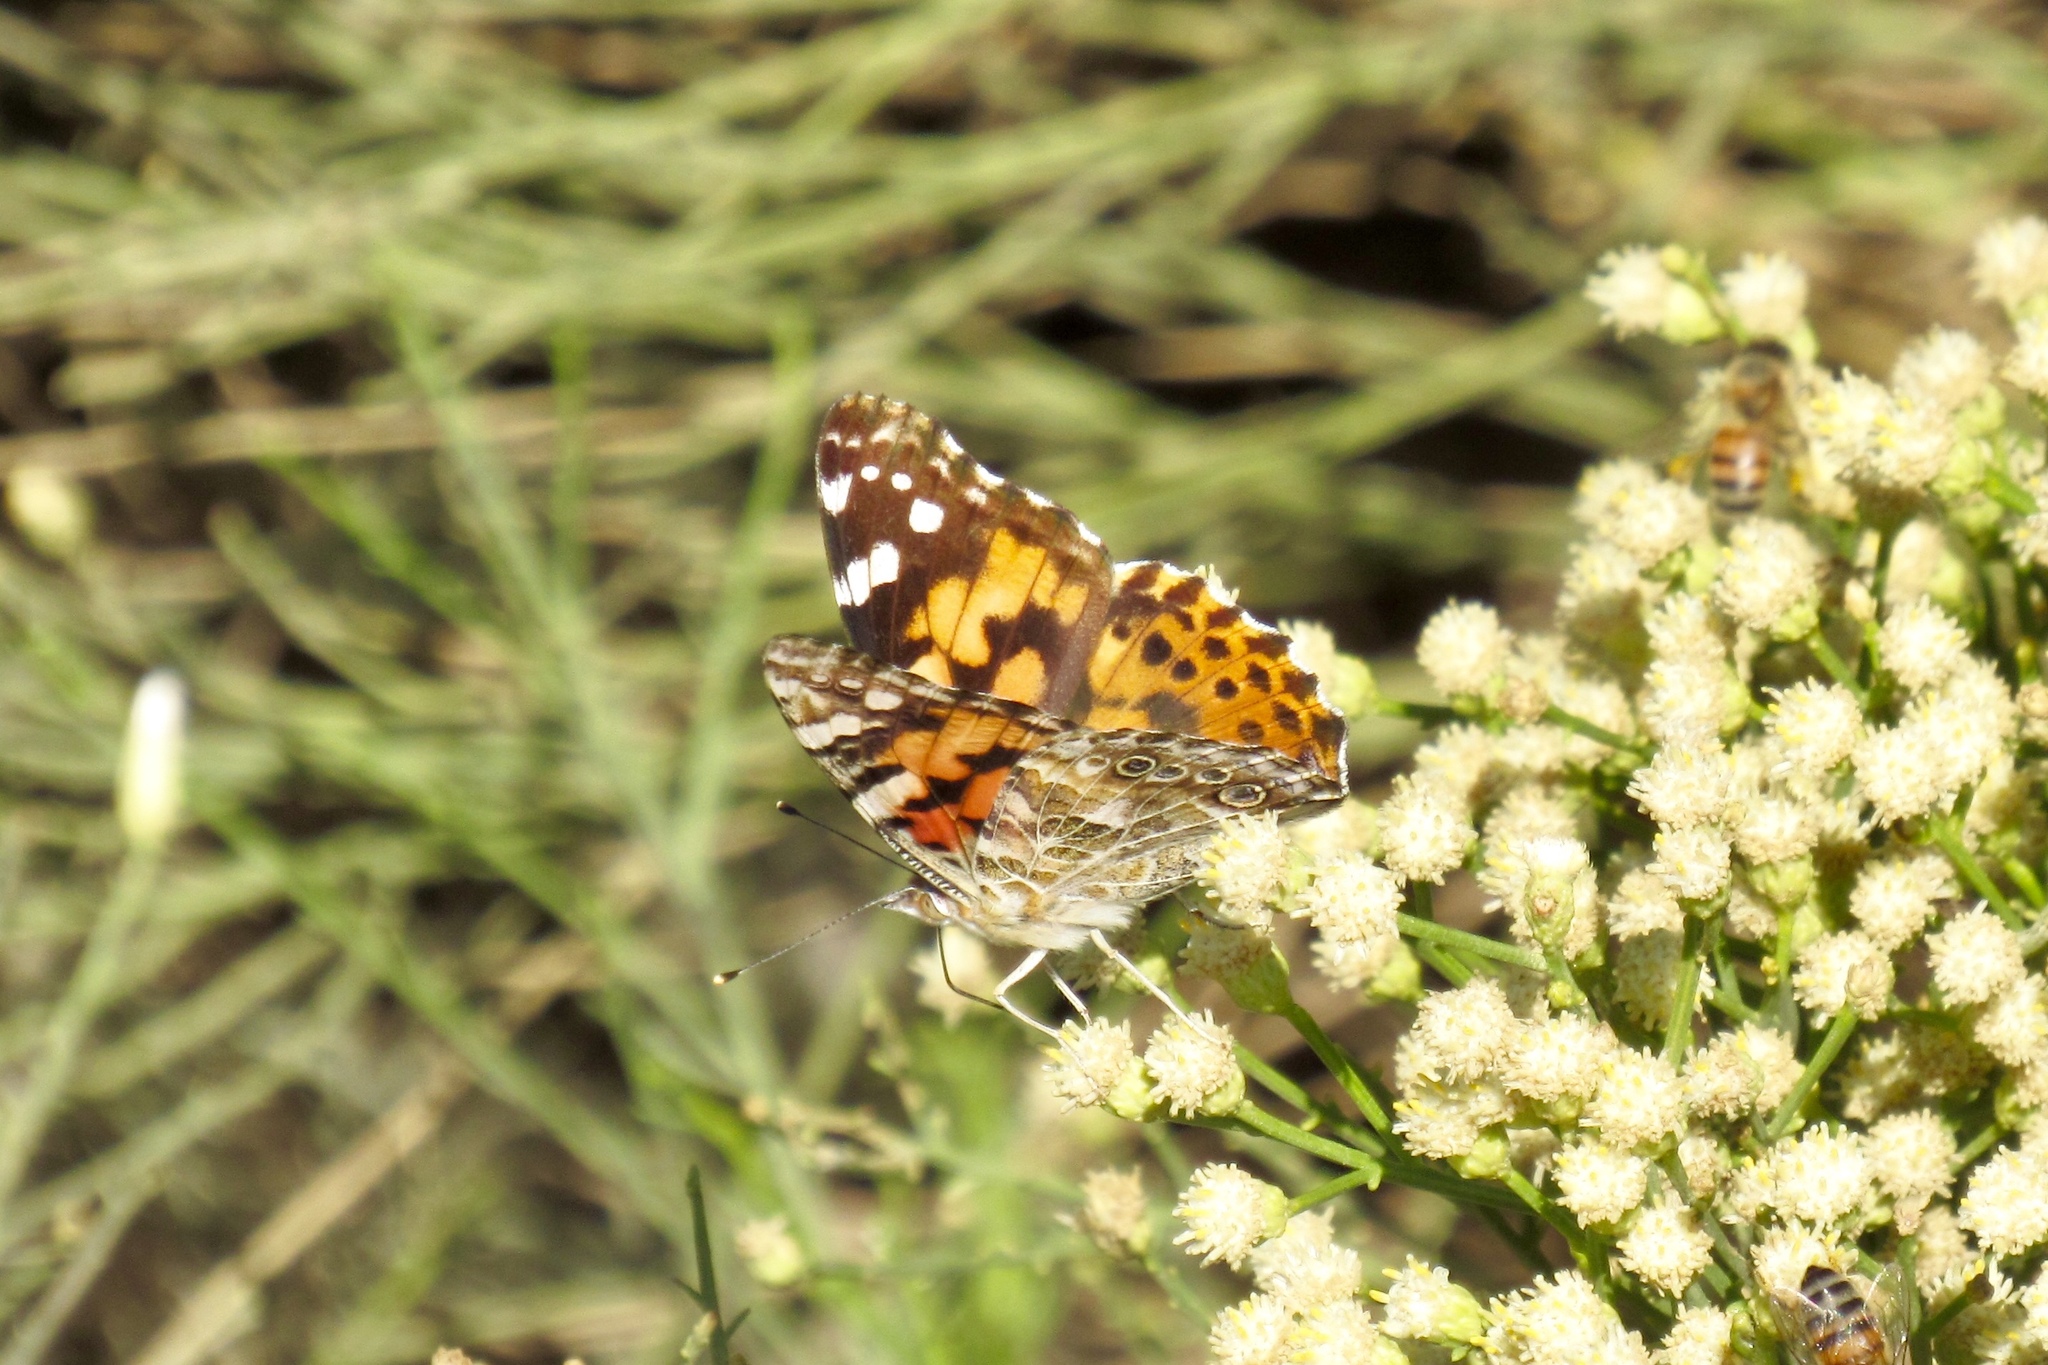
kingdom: Animalia
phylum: Arthropoda
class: Insecta
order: Lepidoptera
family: Nymphalidae
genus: Vanessa
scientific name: Vanessa cardui
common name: Painted lady
